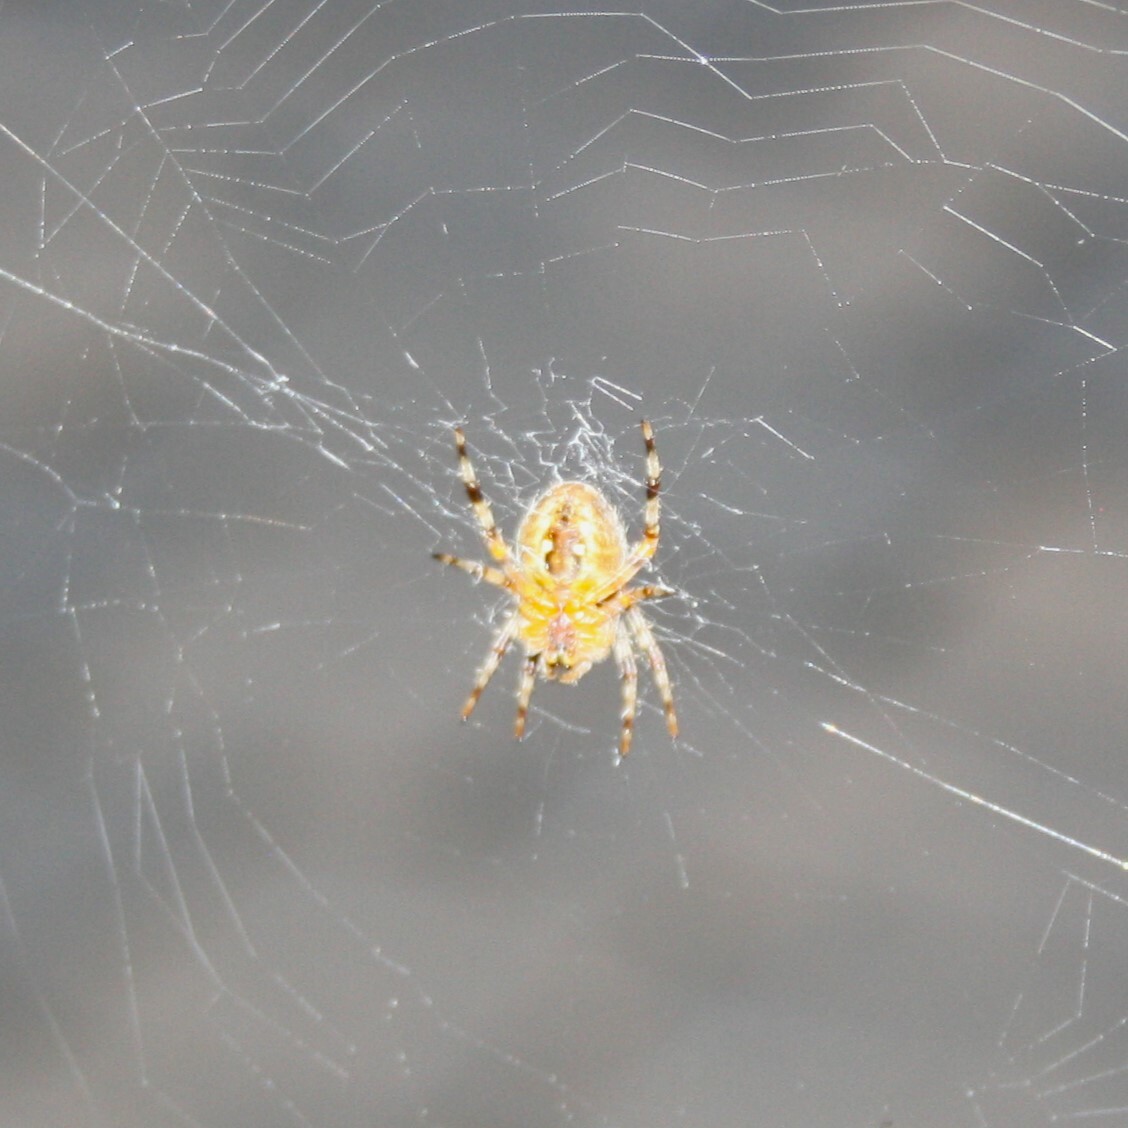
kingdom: Animalia
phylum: Arthropoda
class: Arachnida
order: Araneae
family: Araneidae
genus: Araneus
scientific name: Araneus diadematus
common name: Cross orbweaver
